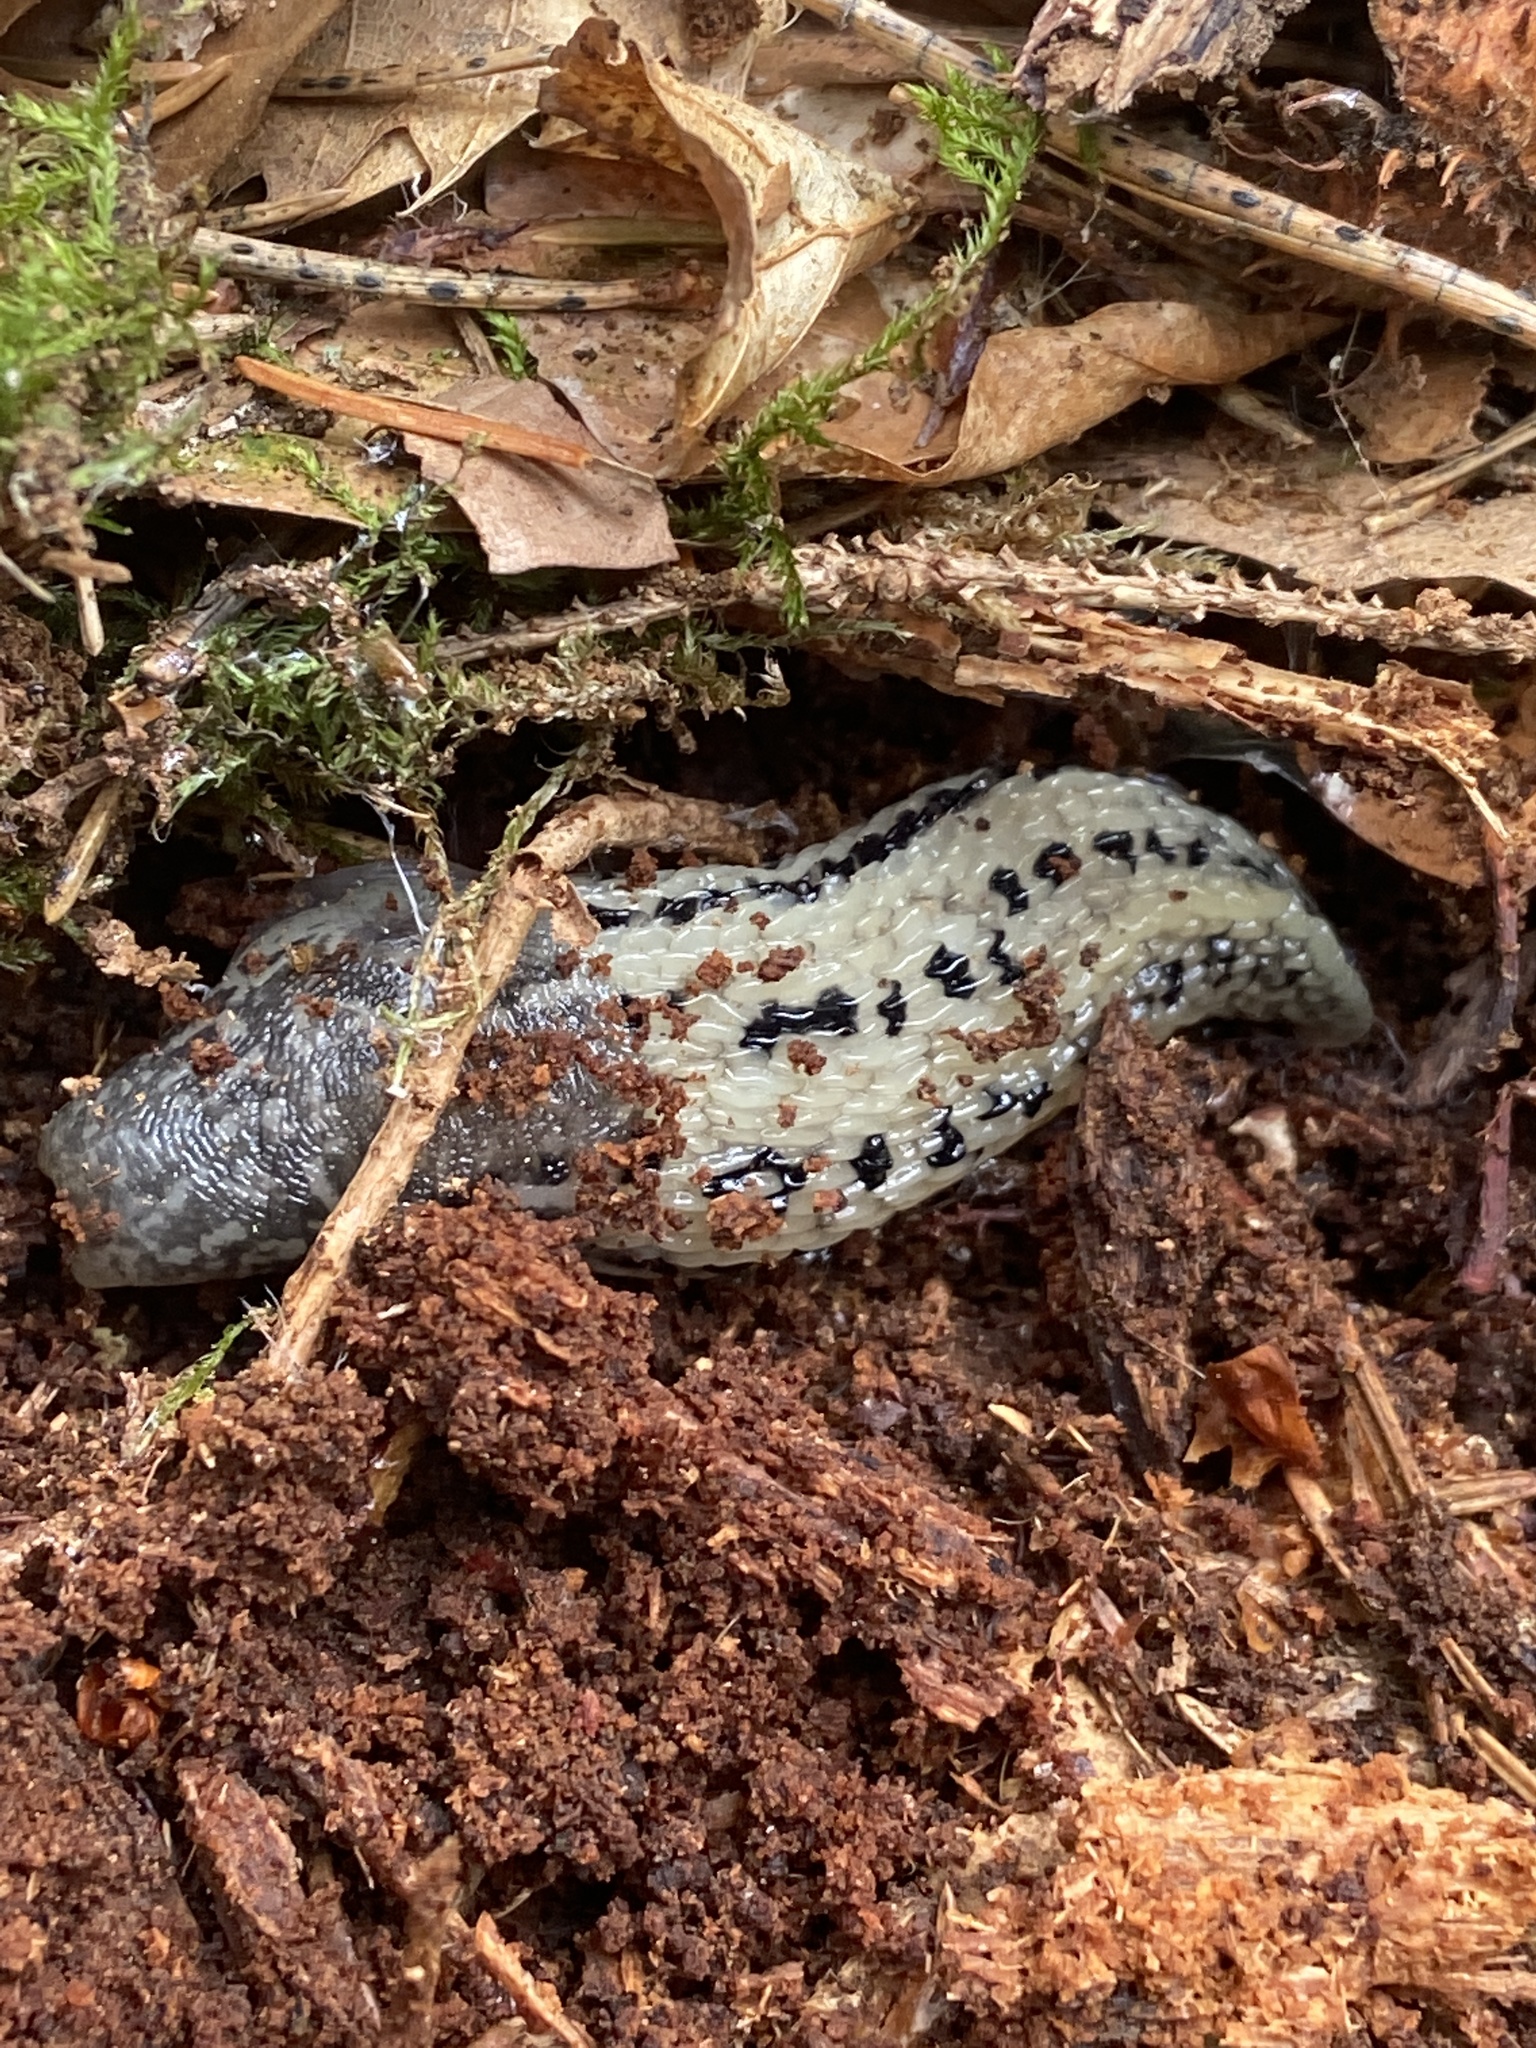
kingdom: Animalia
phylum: Mollusca
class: Gastropoda
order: Stylommatophora
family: Limacidae
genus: Limax
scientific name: Limax maximus
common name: Great grey slug
